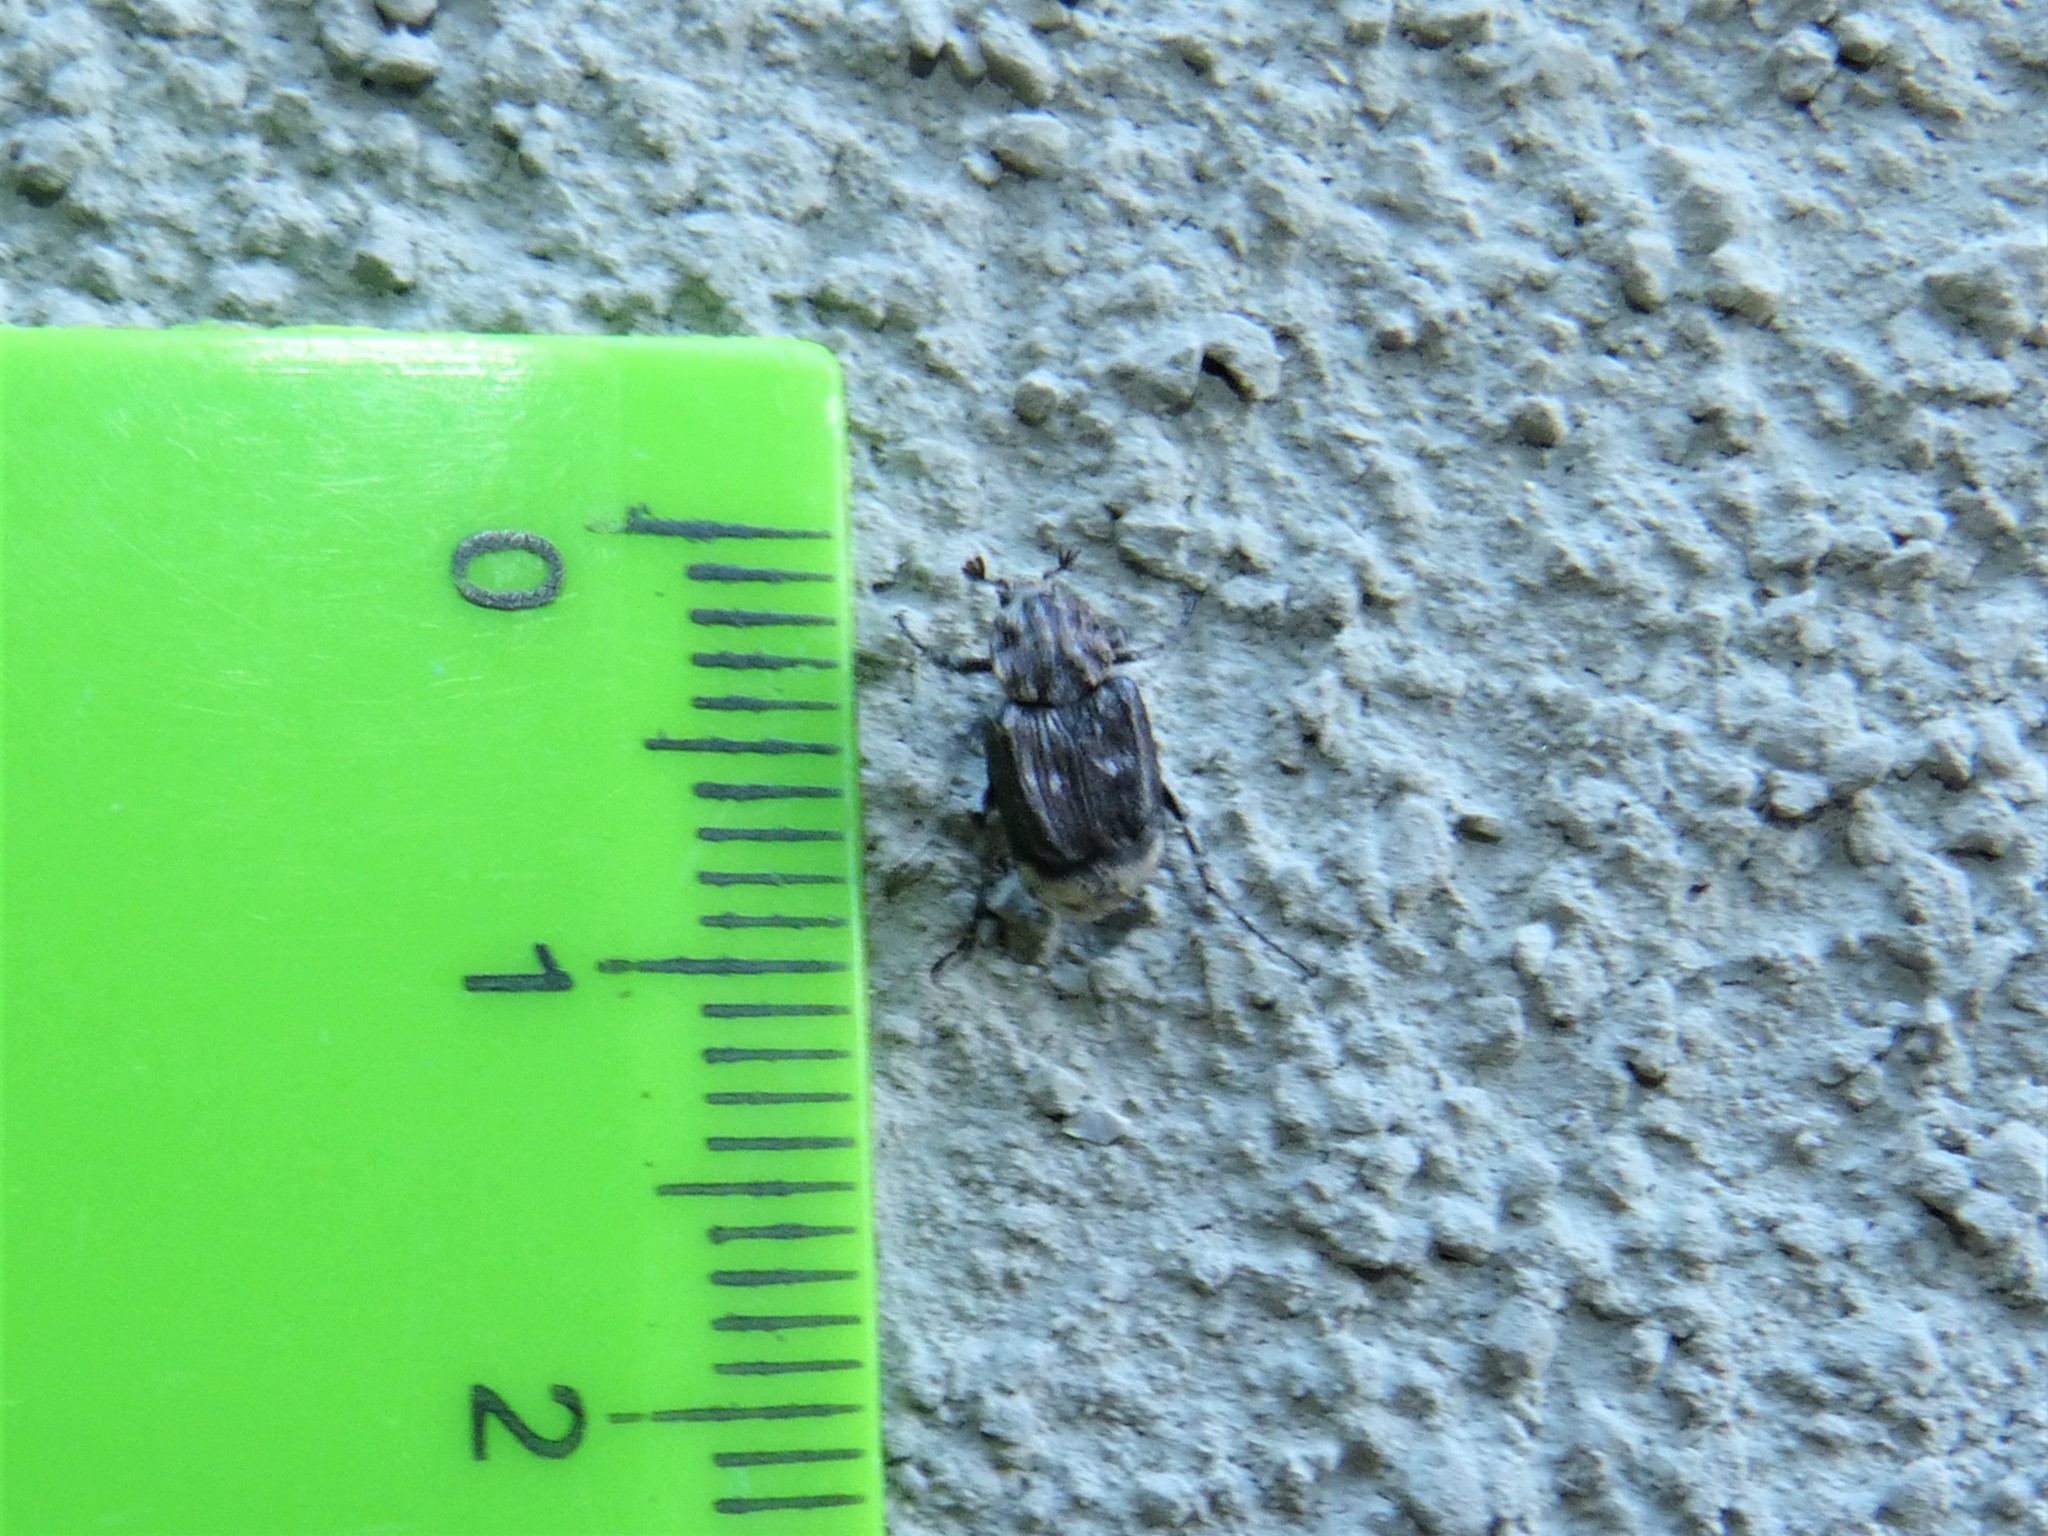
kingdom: Animalia
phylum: Arthropoda
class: Insecta
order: Coleoptera
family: Scarabaeidae
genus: Valgus
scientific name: Valgus hemipterus
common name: Bug flower chafer
